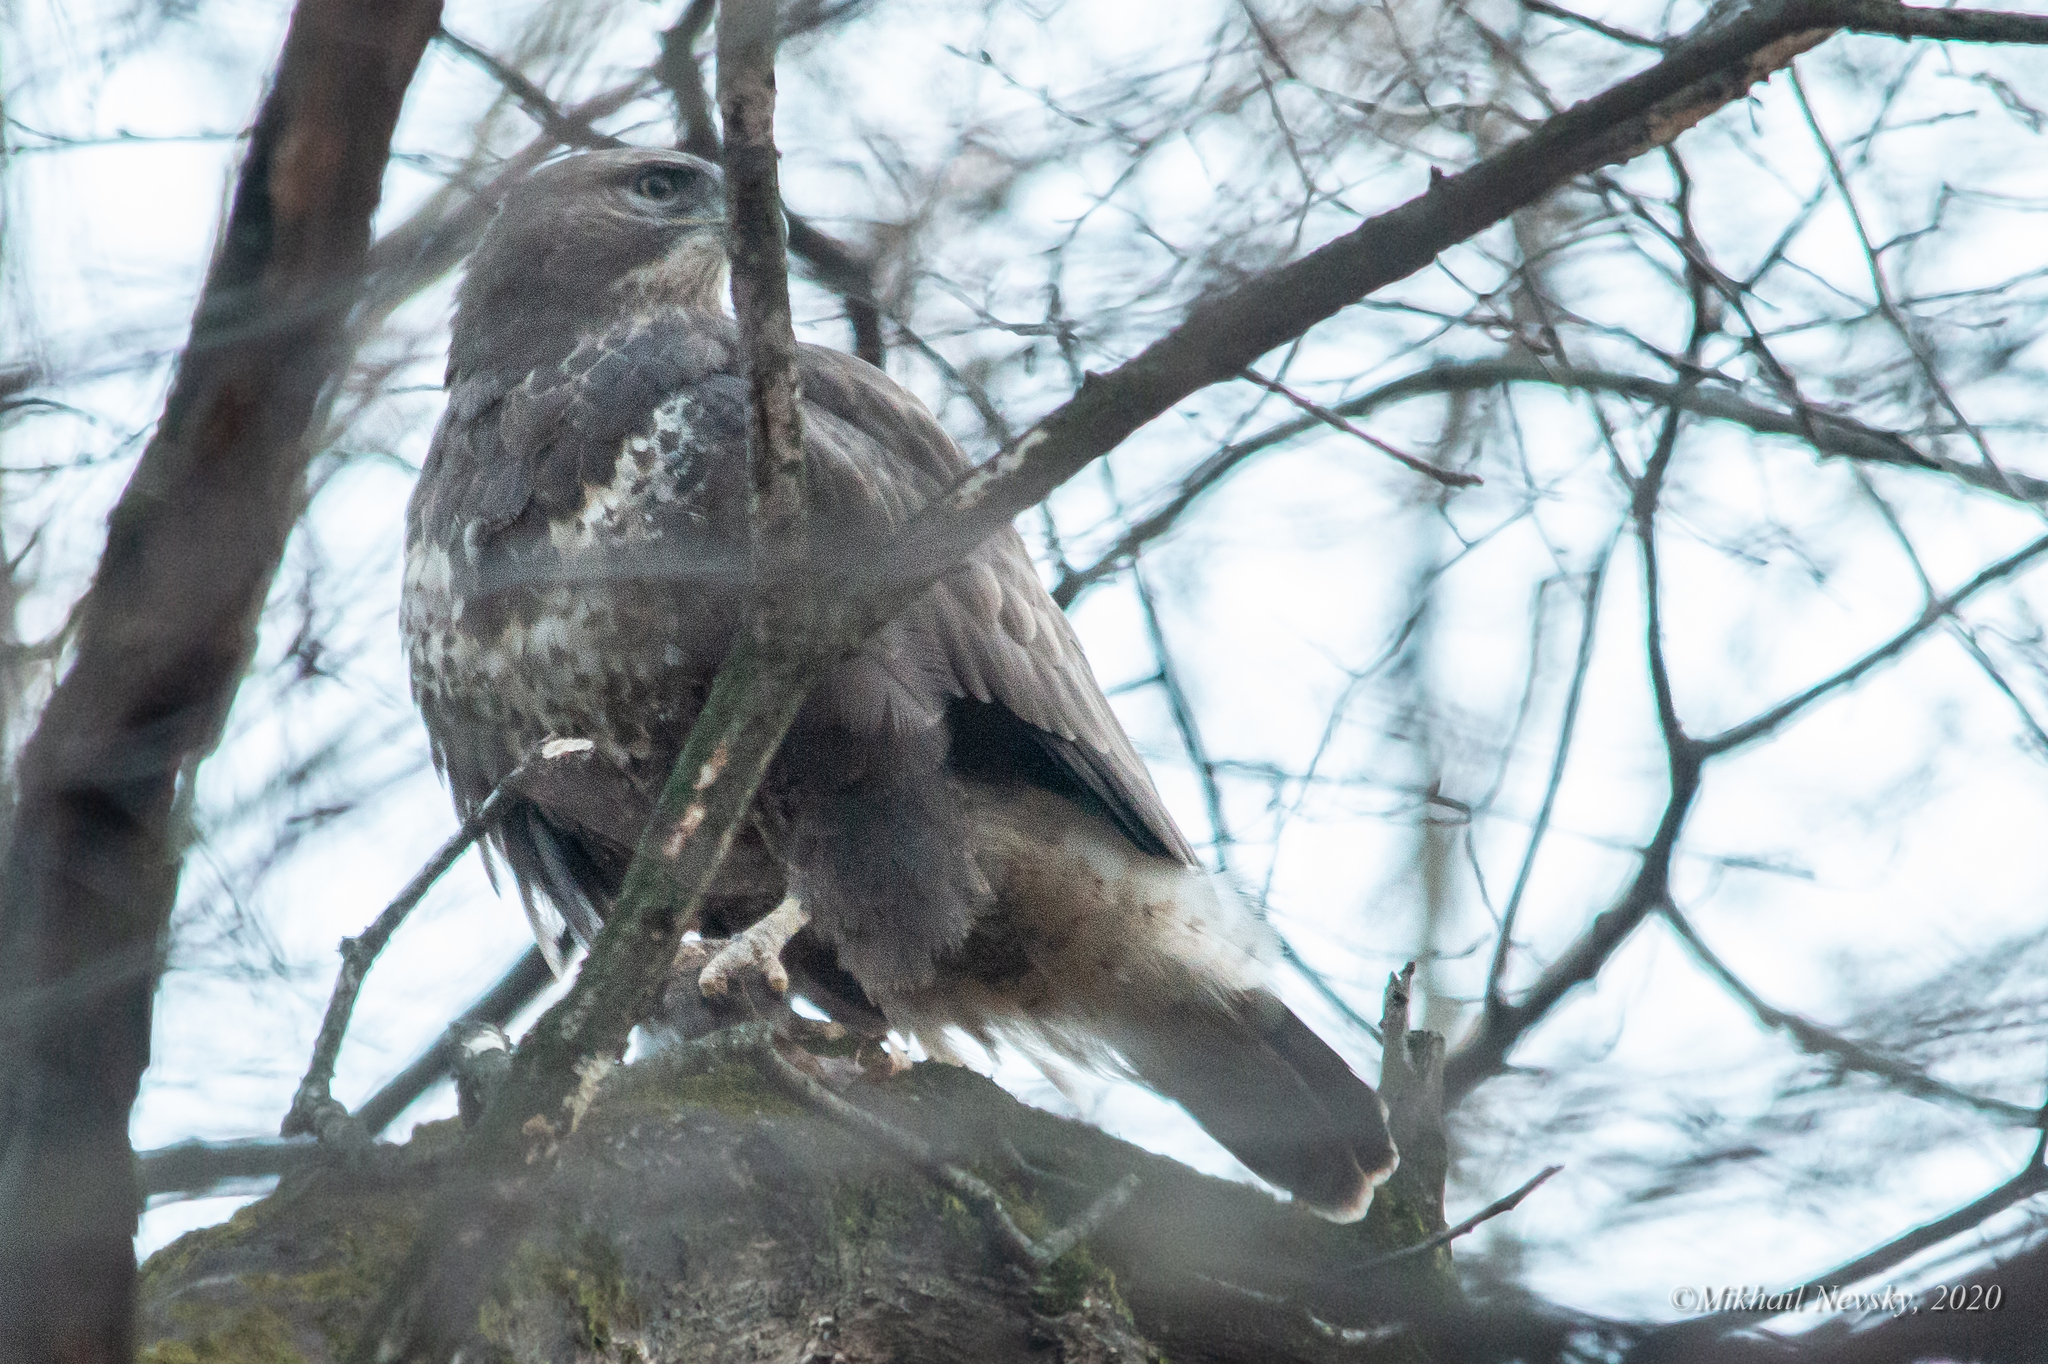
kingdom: Animalia
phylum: Chordata
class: Aves
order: Accipitriformes
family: Accipitridae
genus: Buteo
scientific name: Buteo buteo
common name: Common buzzard
